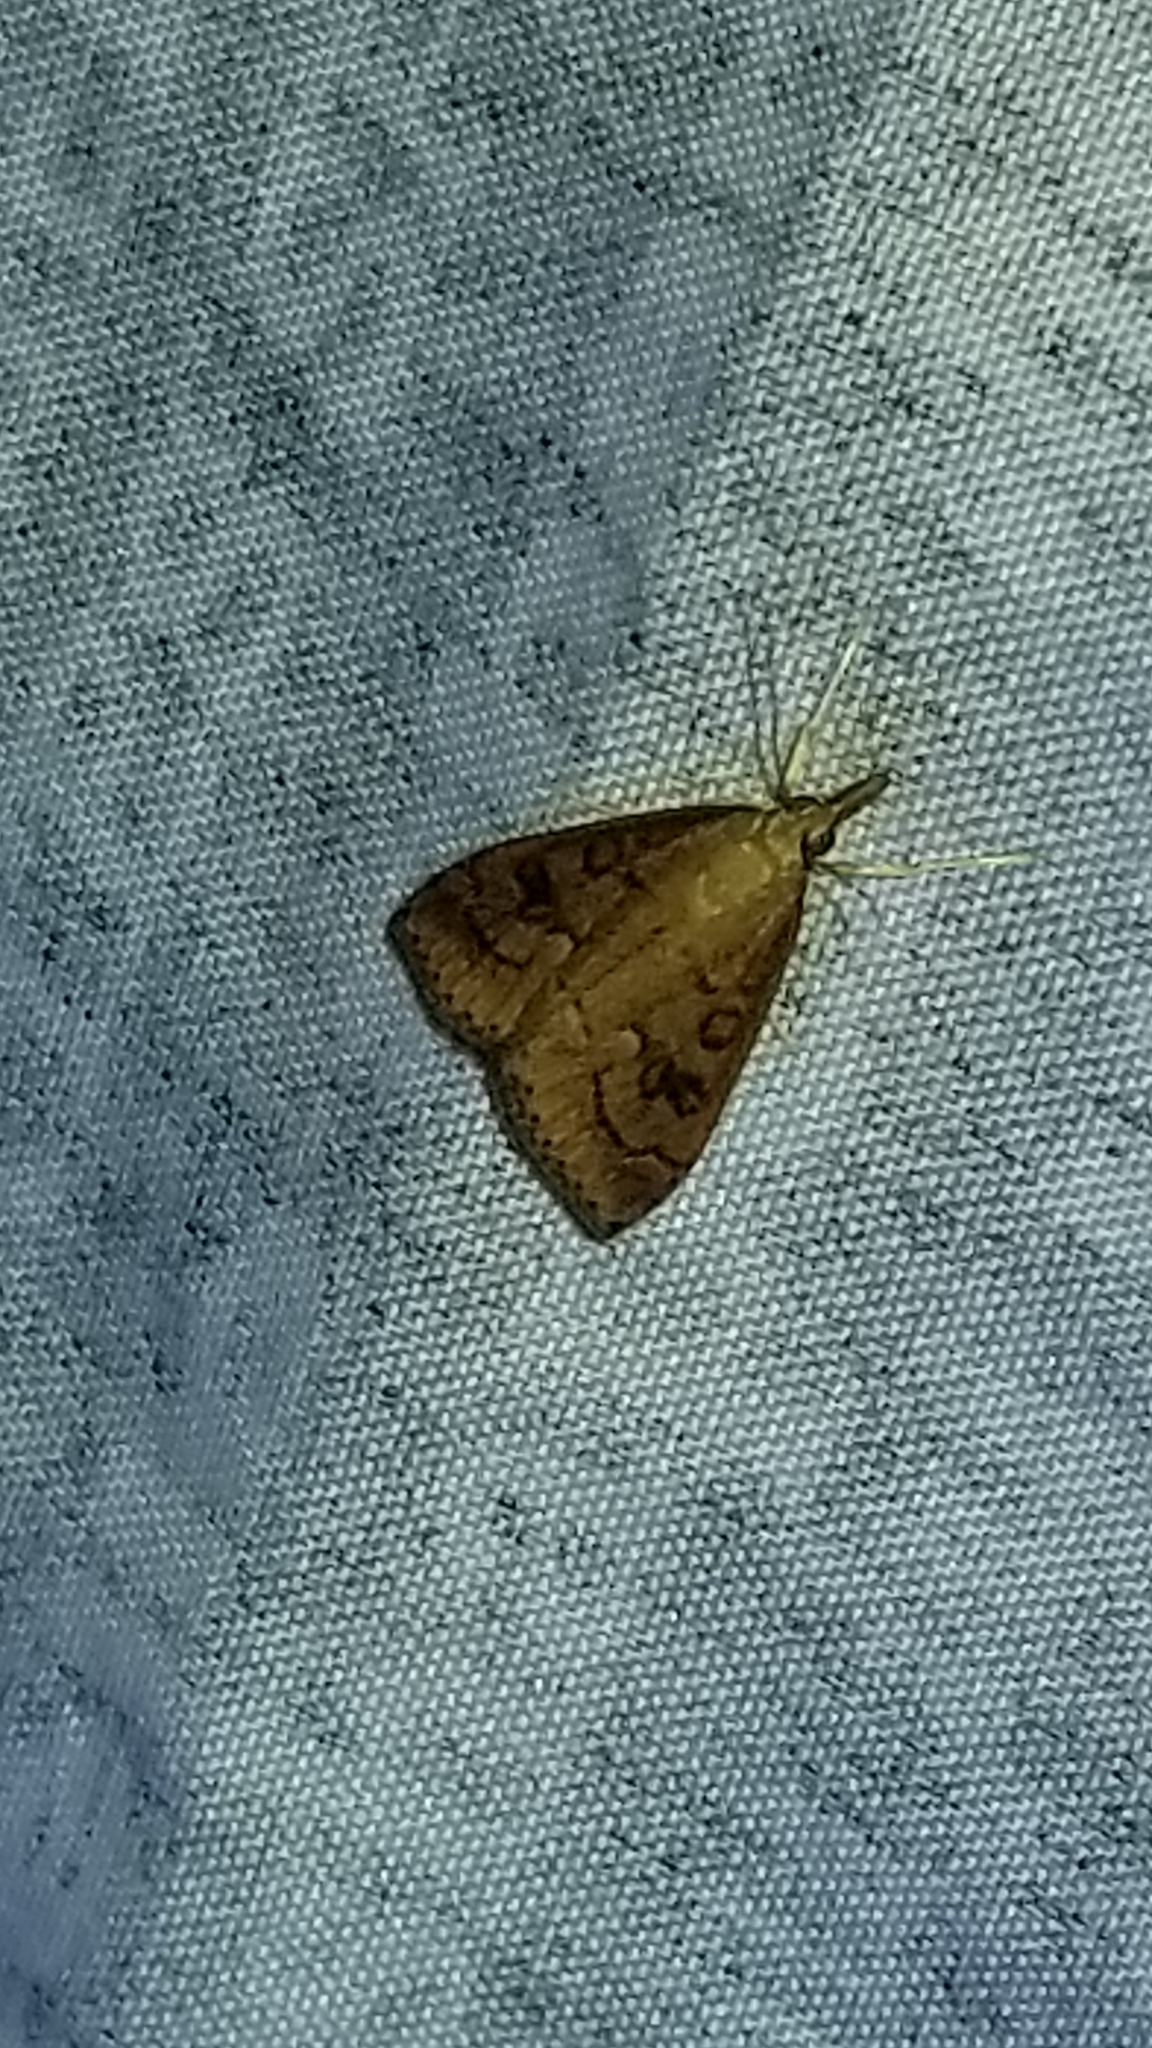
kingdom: Animalia
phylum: Arthropoda
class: Insecta
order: Lepidoptera
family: Crambidae
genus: Udea
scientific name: Udea rubigalis
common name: Celery leaftier moth
